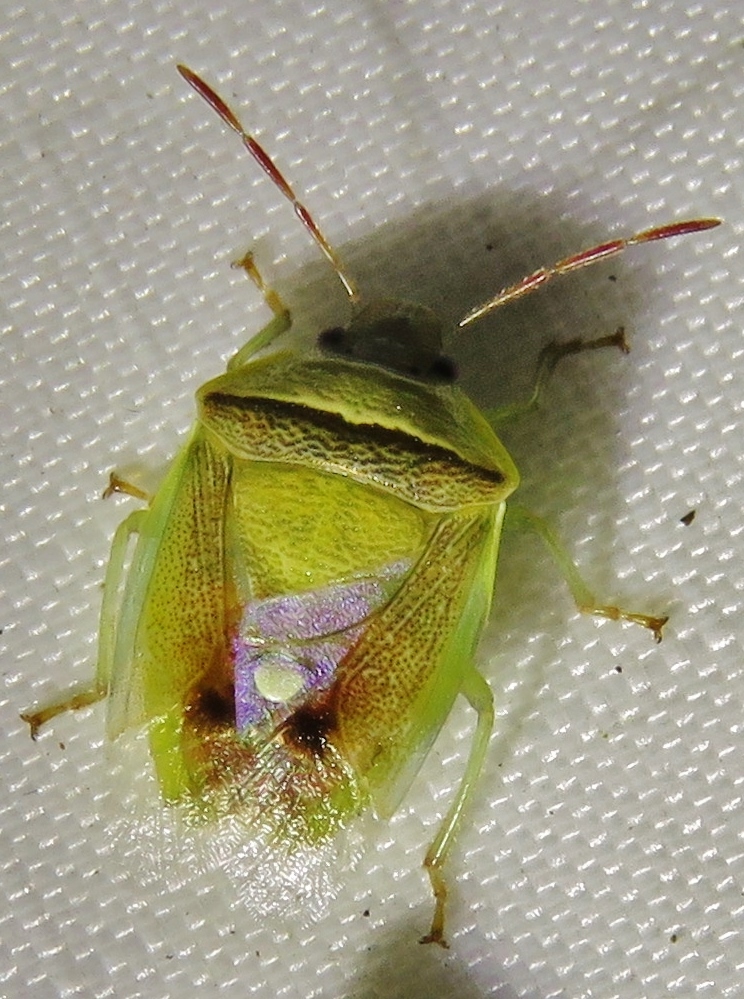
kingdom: Animalia
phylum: Arthropoda
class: Insecta
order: Hemiptera
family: Pentatomidae
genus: Banasa
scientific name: Banasa dimidiata
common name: Green burgundy stink bug
